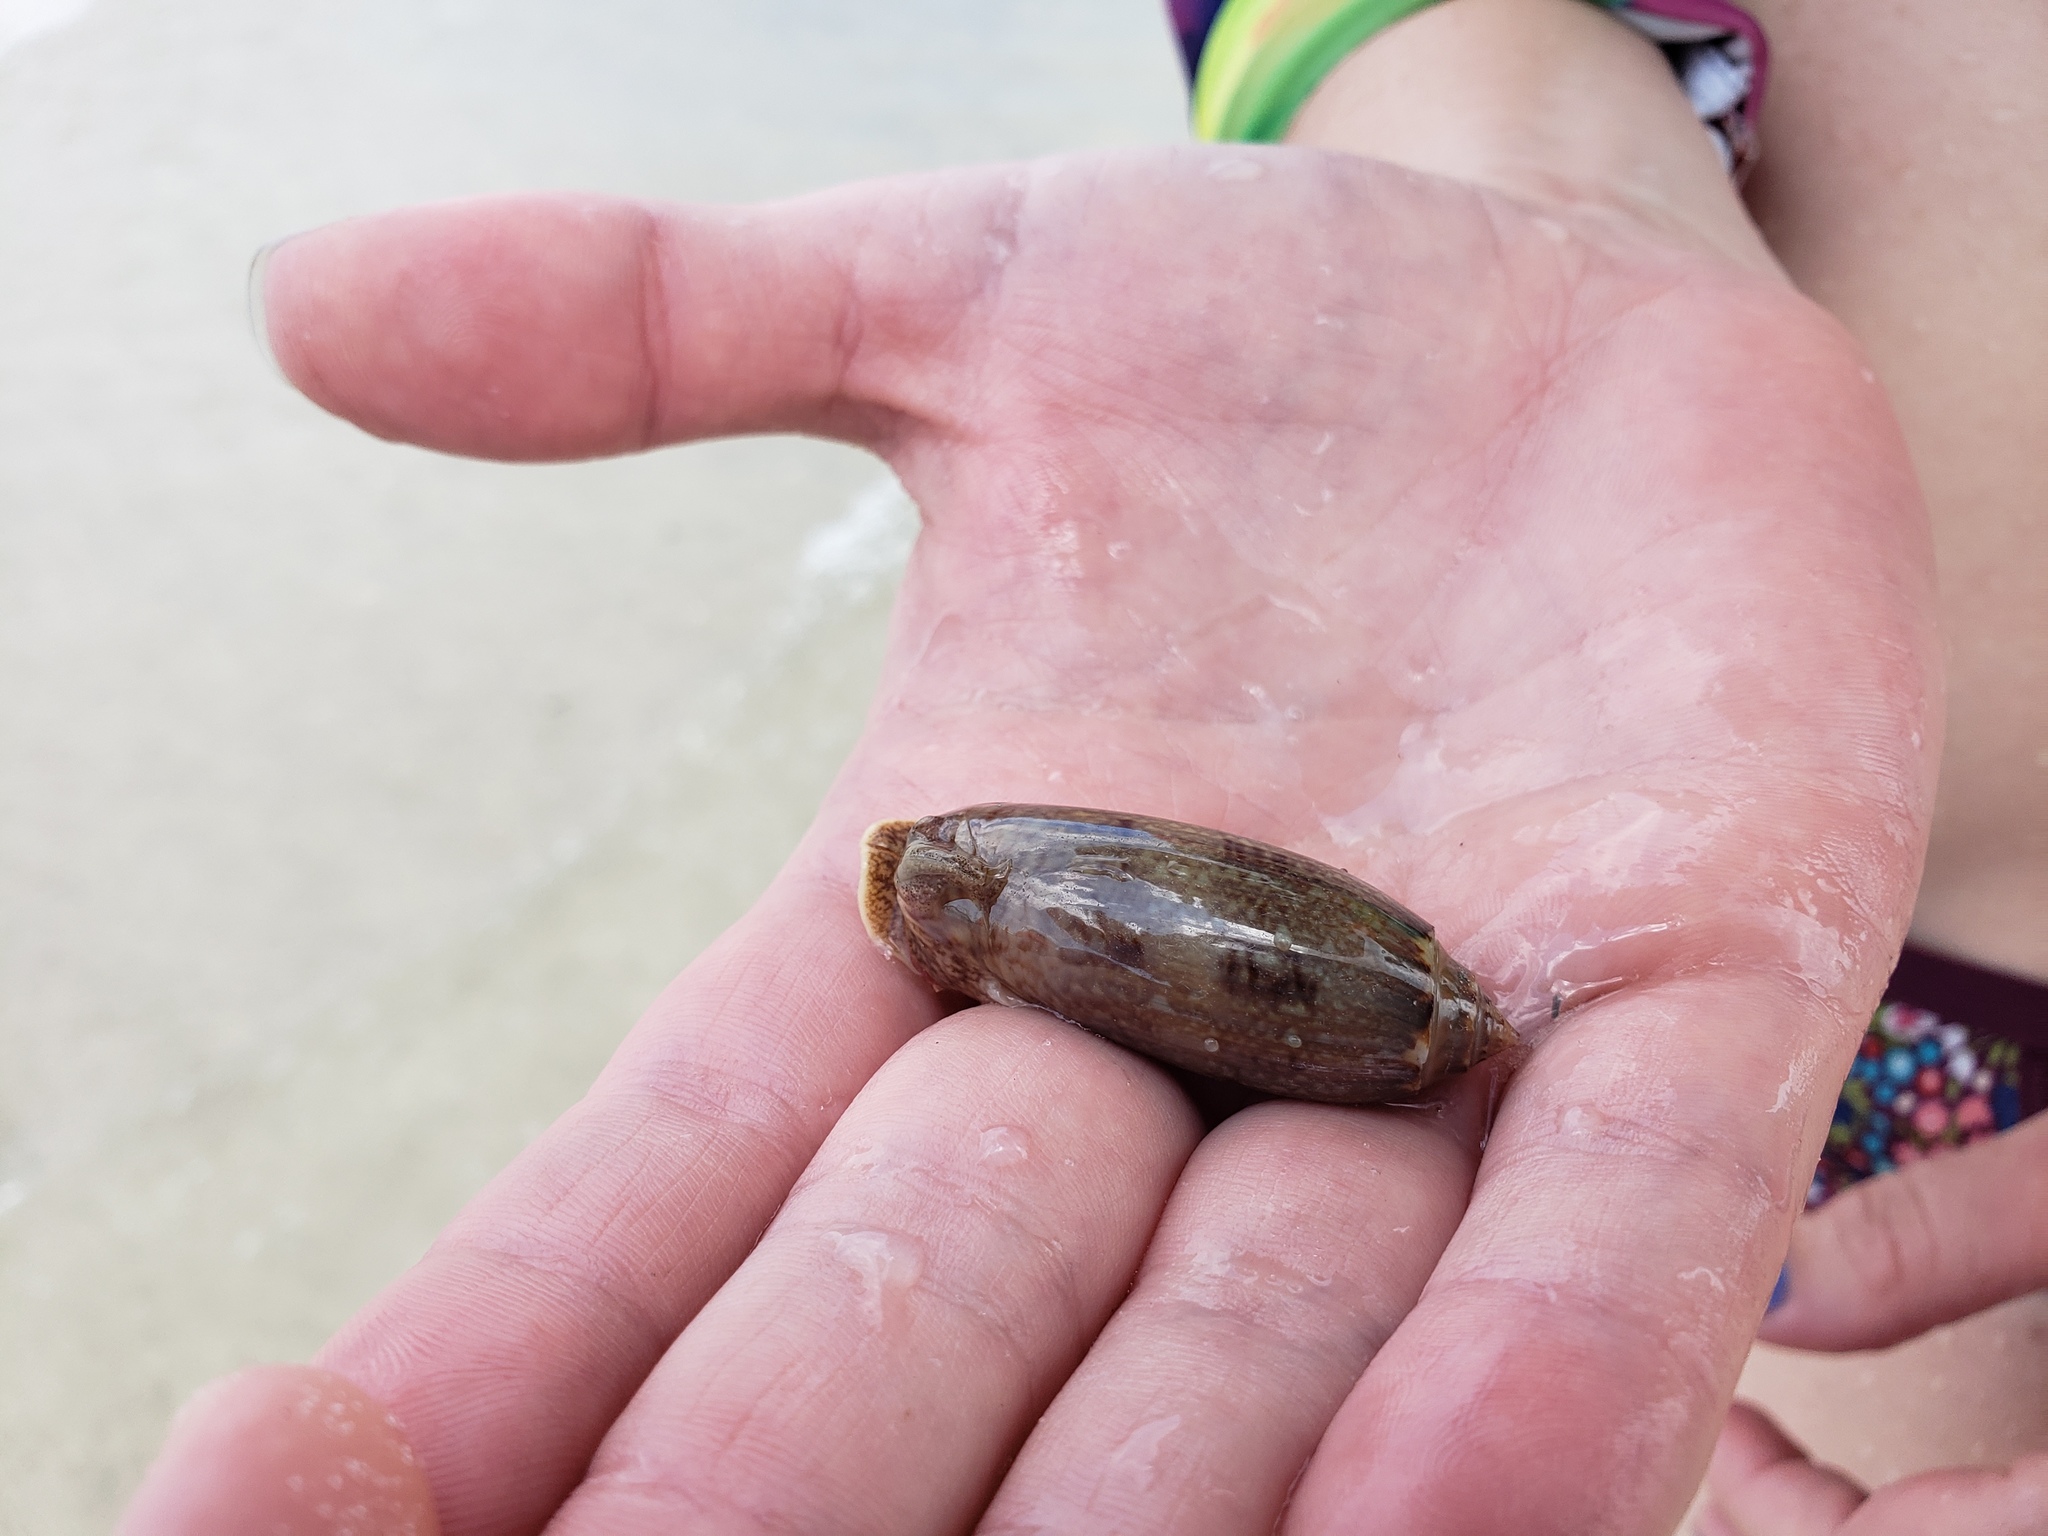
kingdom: Animalia
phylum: Mollusca
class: Gastropoda
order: Neogastropoda
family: Olividae
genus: Oliva
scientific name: Oliva sayana
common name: Lettered olive
